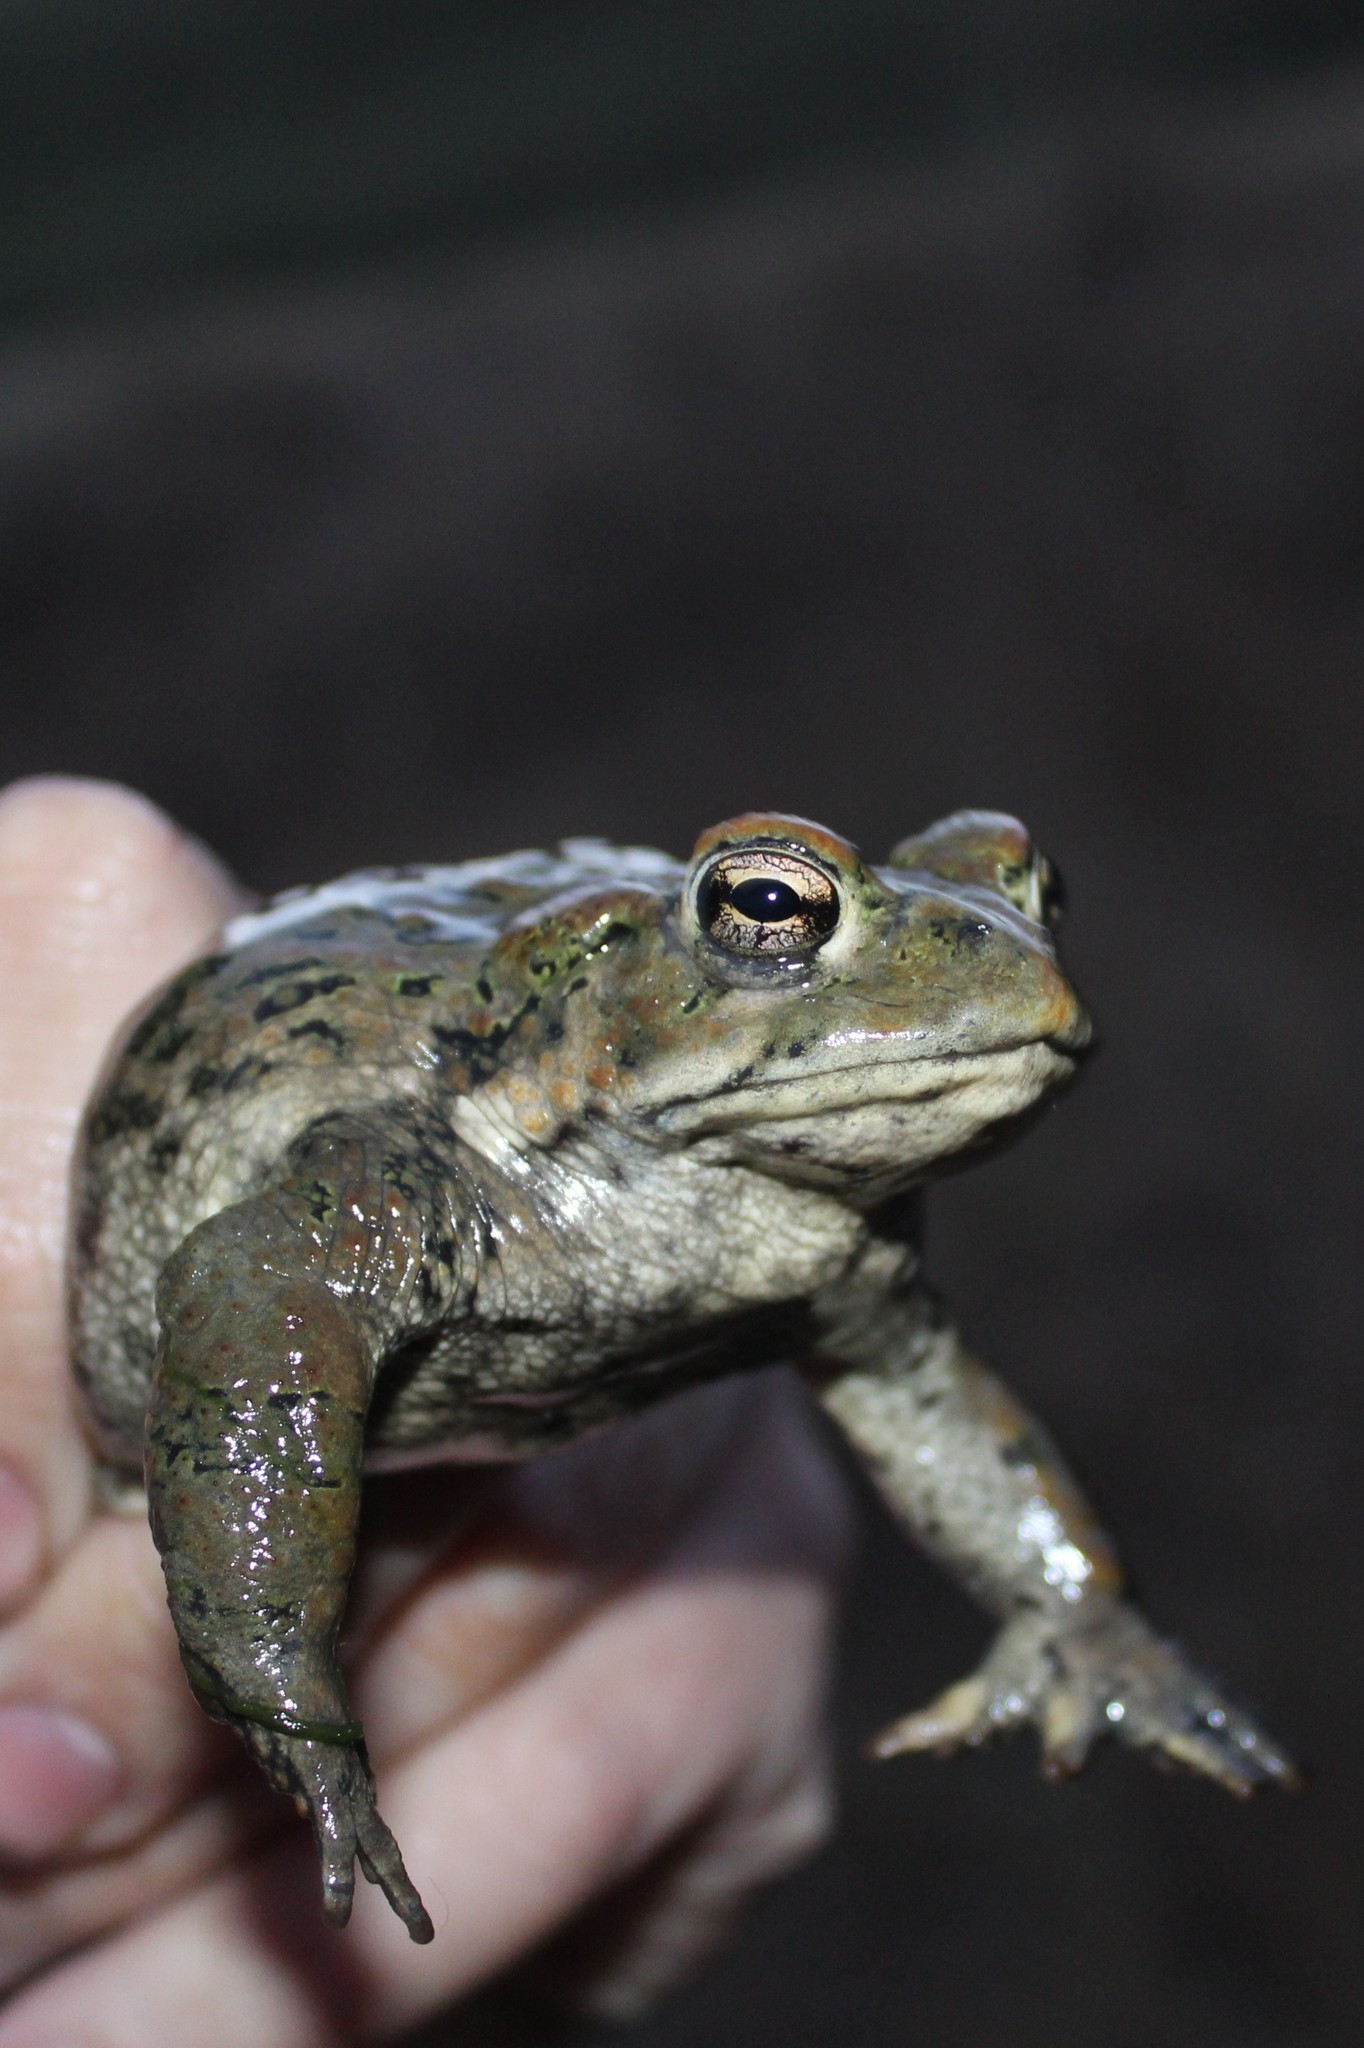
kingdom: Animalia
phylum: Chordata
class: Amphibia
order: Anura
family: Bufonidae
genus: Anaxyrus
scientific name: Anaxyrus boreas
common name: Western toad
